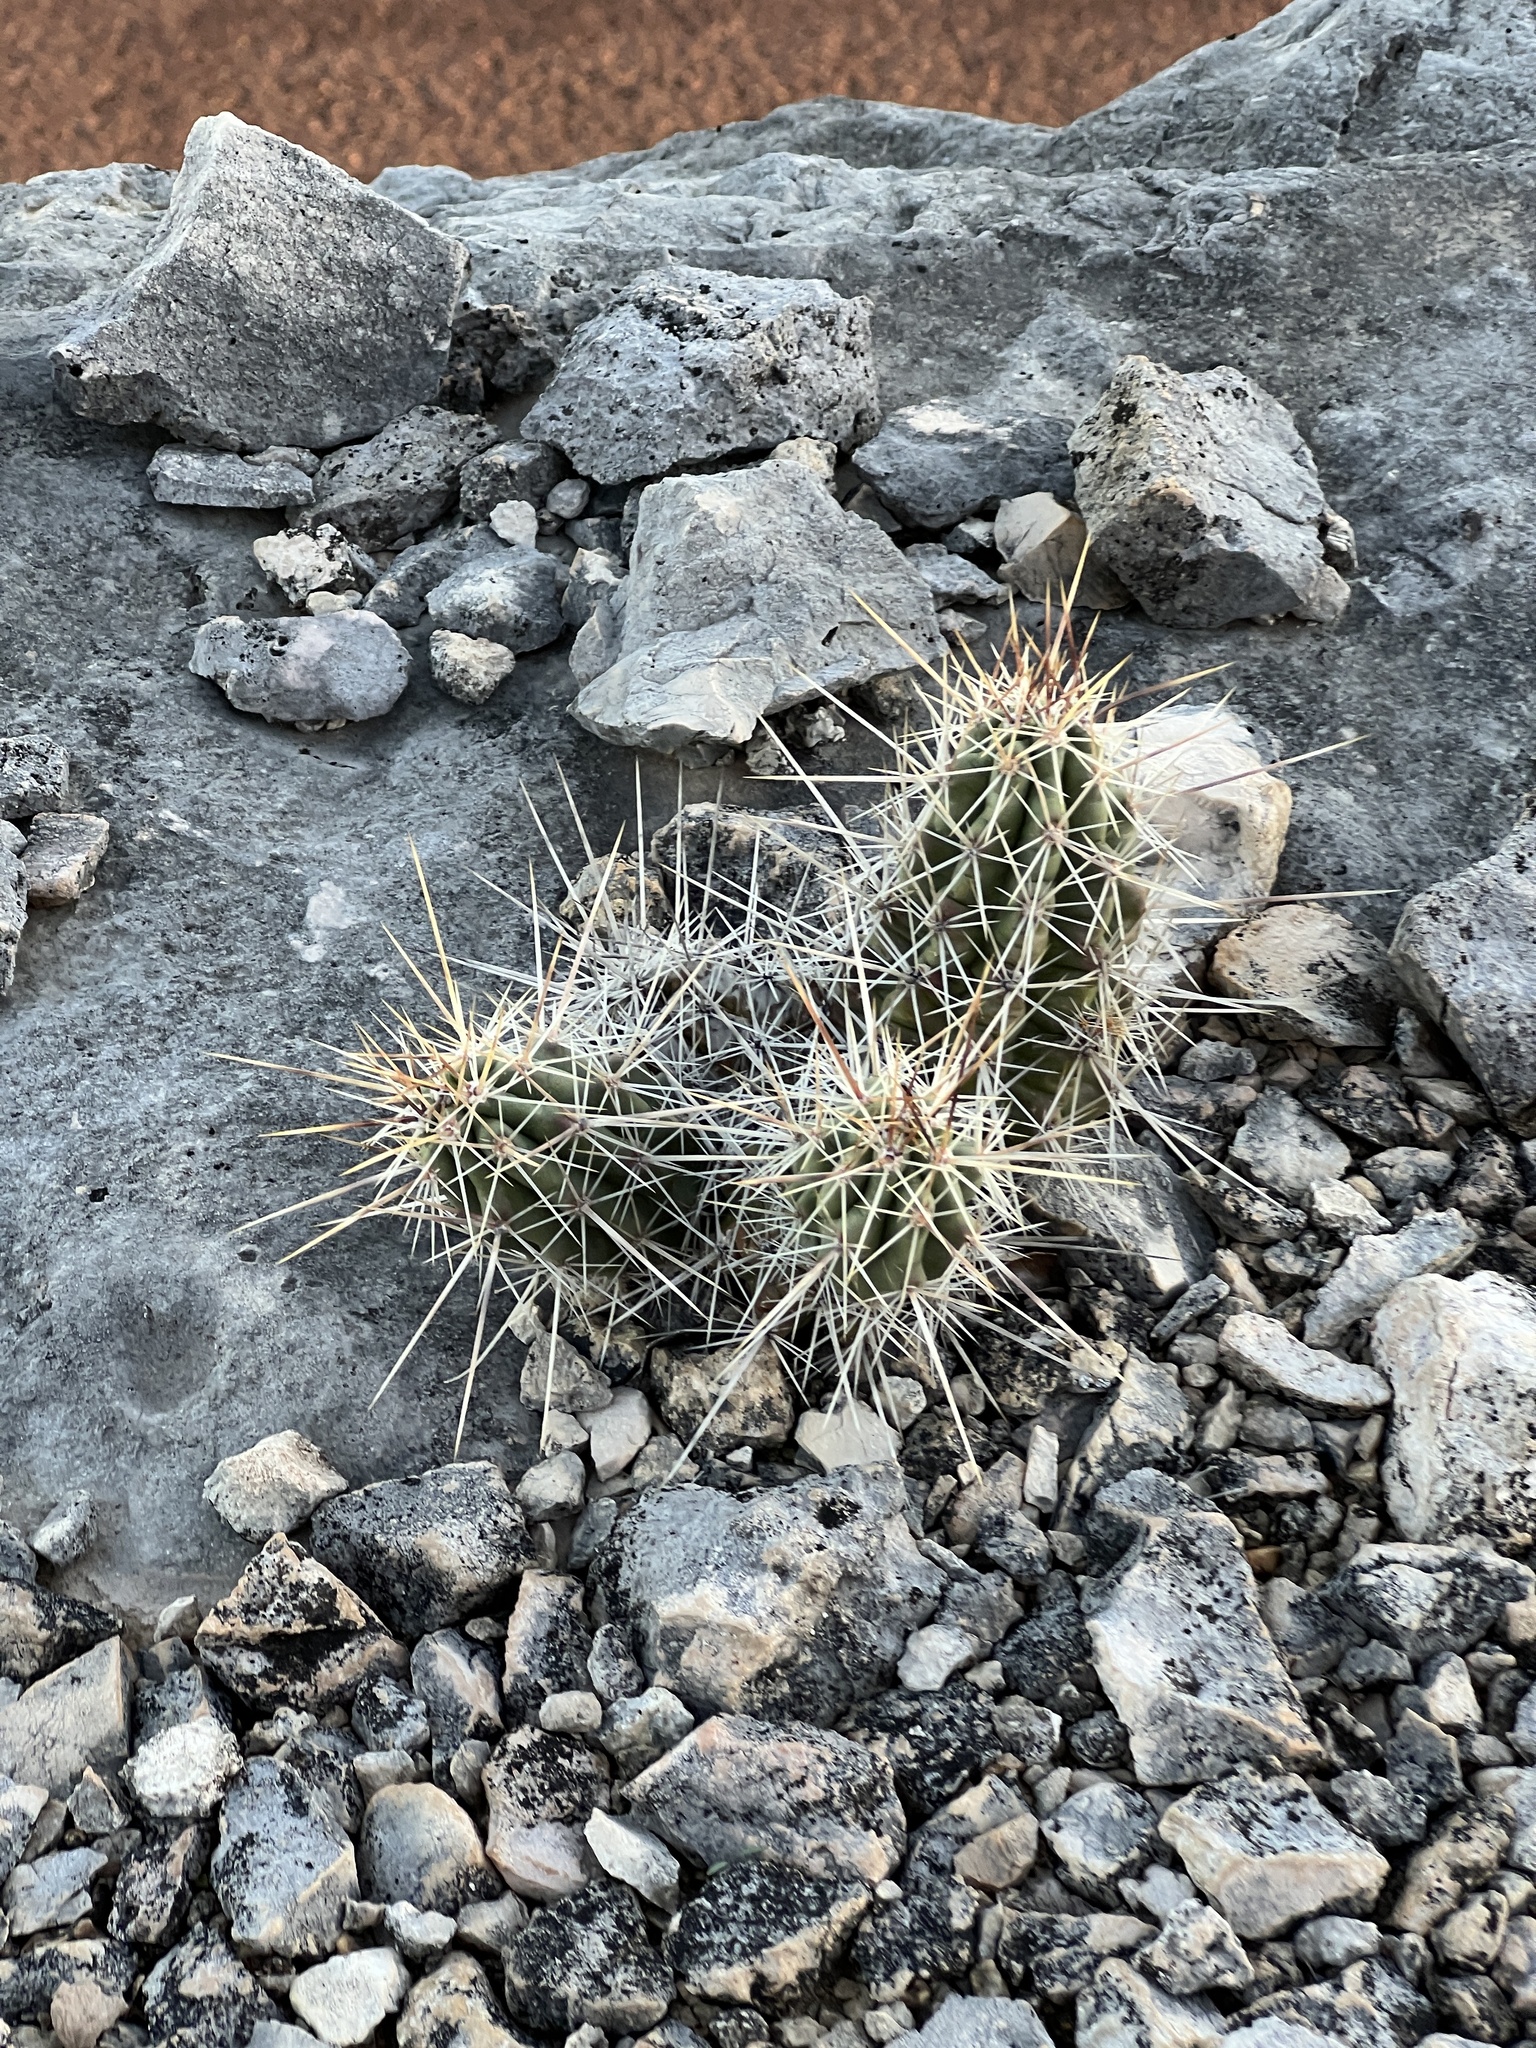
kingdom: Plantae
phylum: Tracheophyta
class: Magnoliopsida
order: Caryophyllales
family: Cactaceae
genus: Echinocereus
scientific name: Echinocereus enneacanthus
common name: Pitaya
